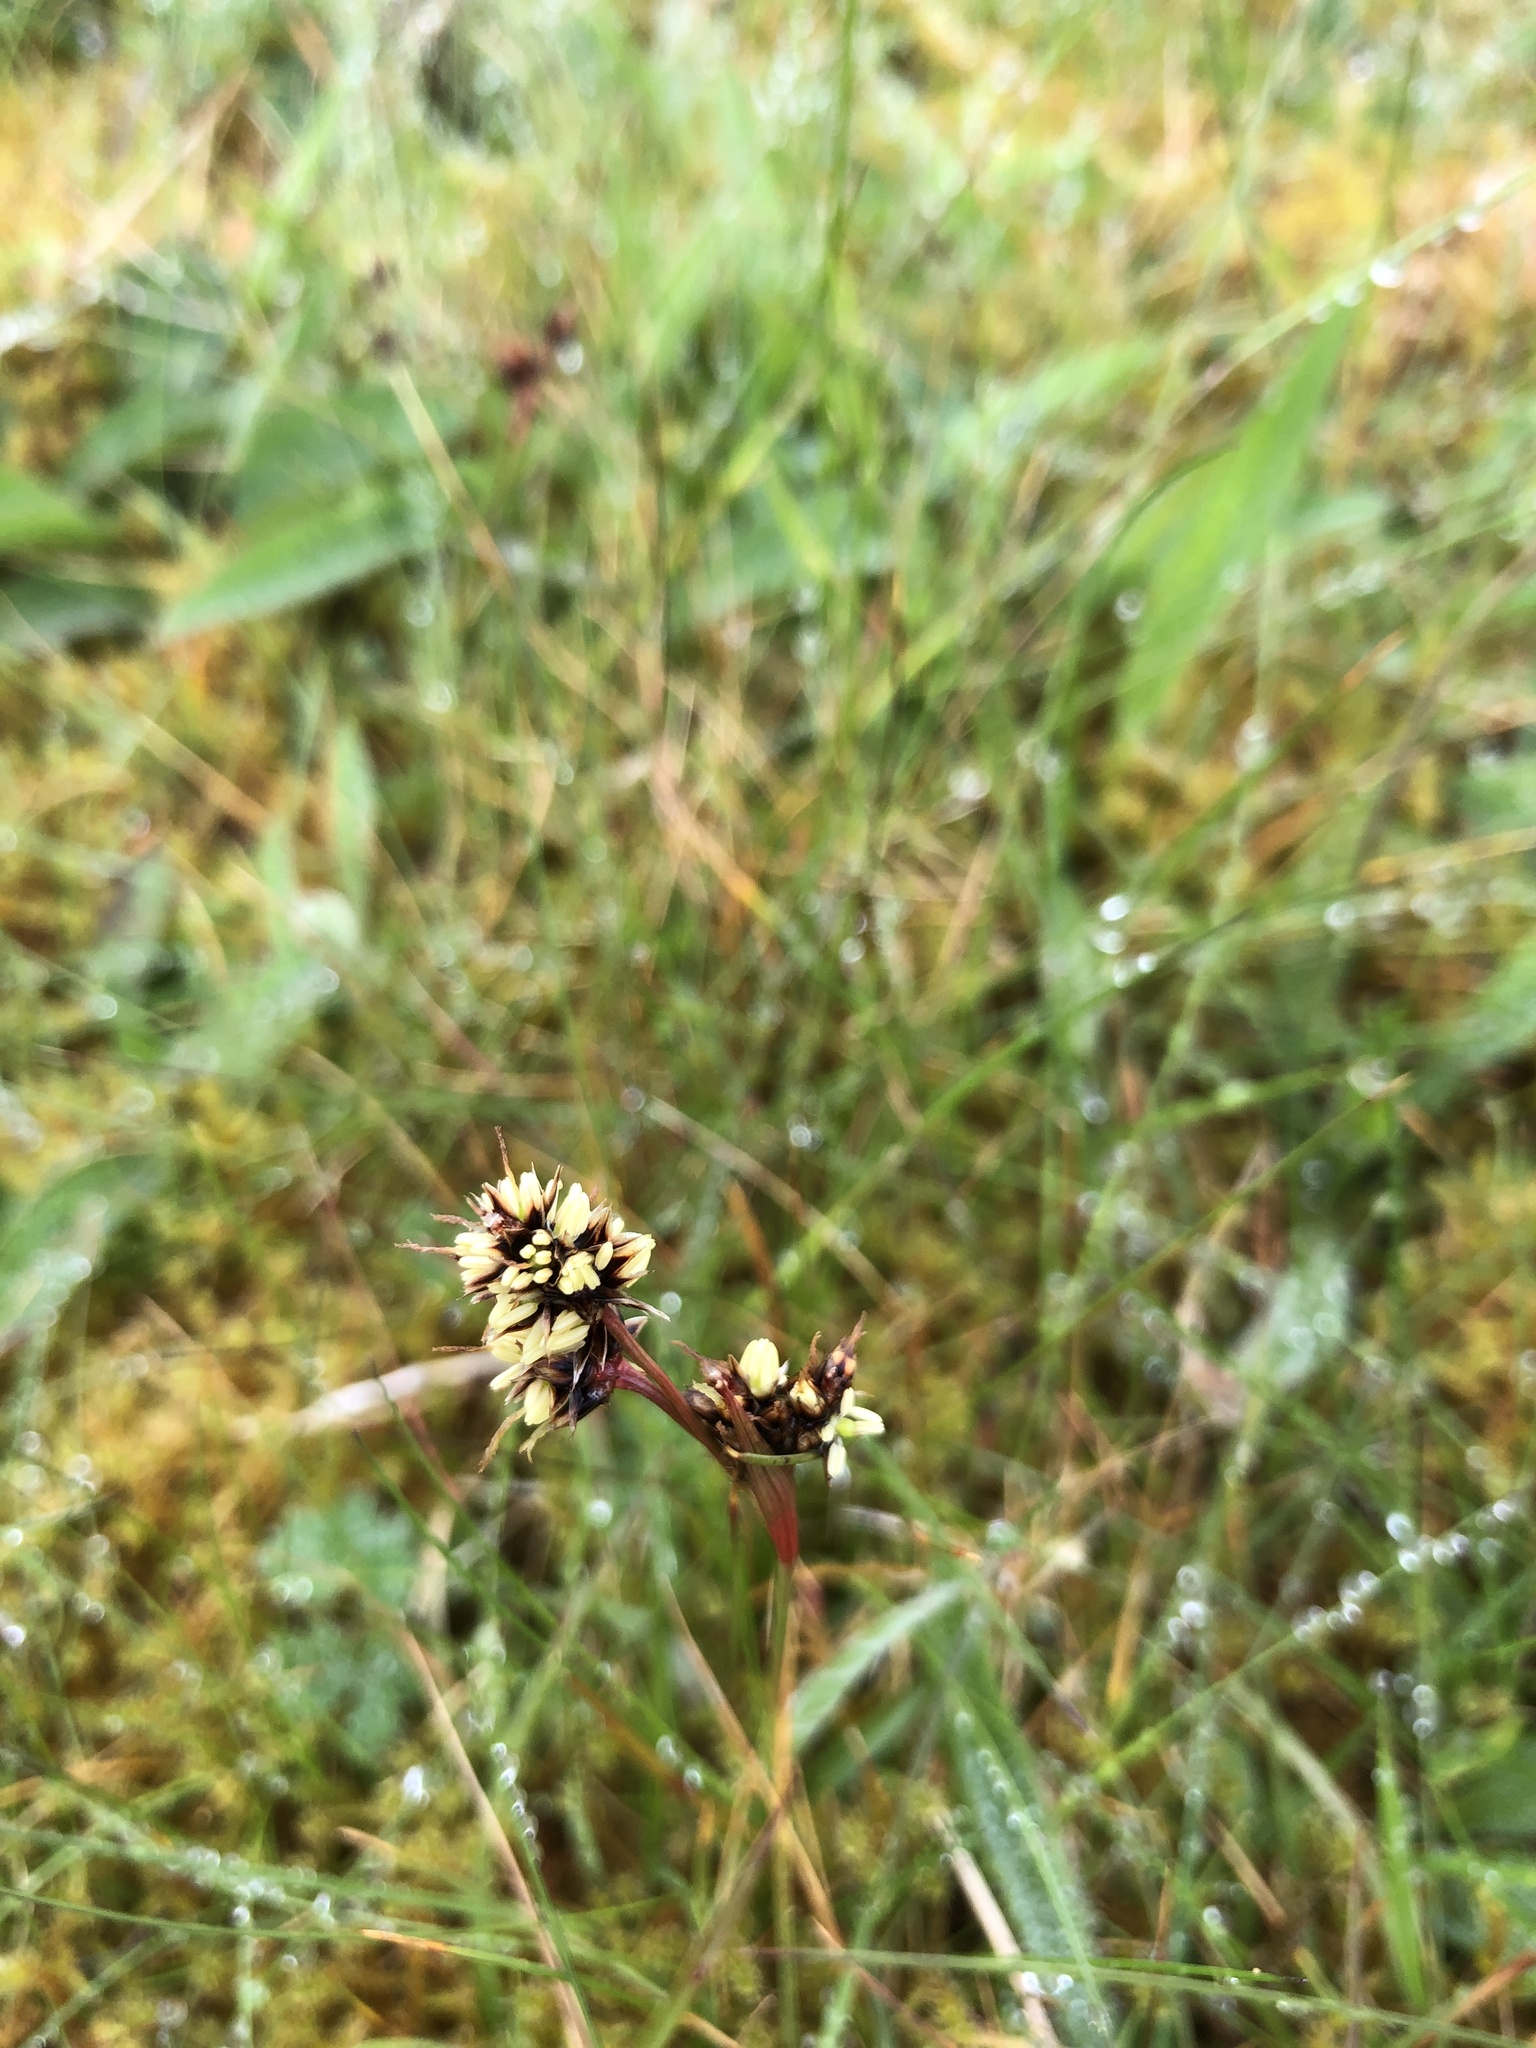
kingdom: Plantae
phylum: Tracheophyta
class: Liliopsida
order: Poales
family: Juncaceae
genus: Luzula
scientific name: Luzula campestris
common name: Field wood-rush
